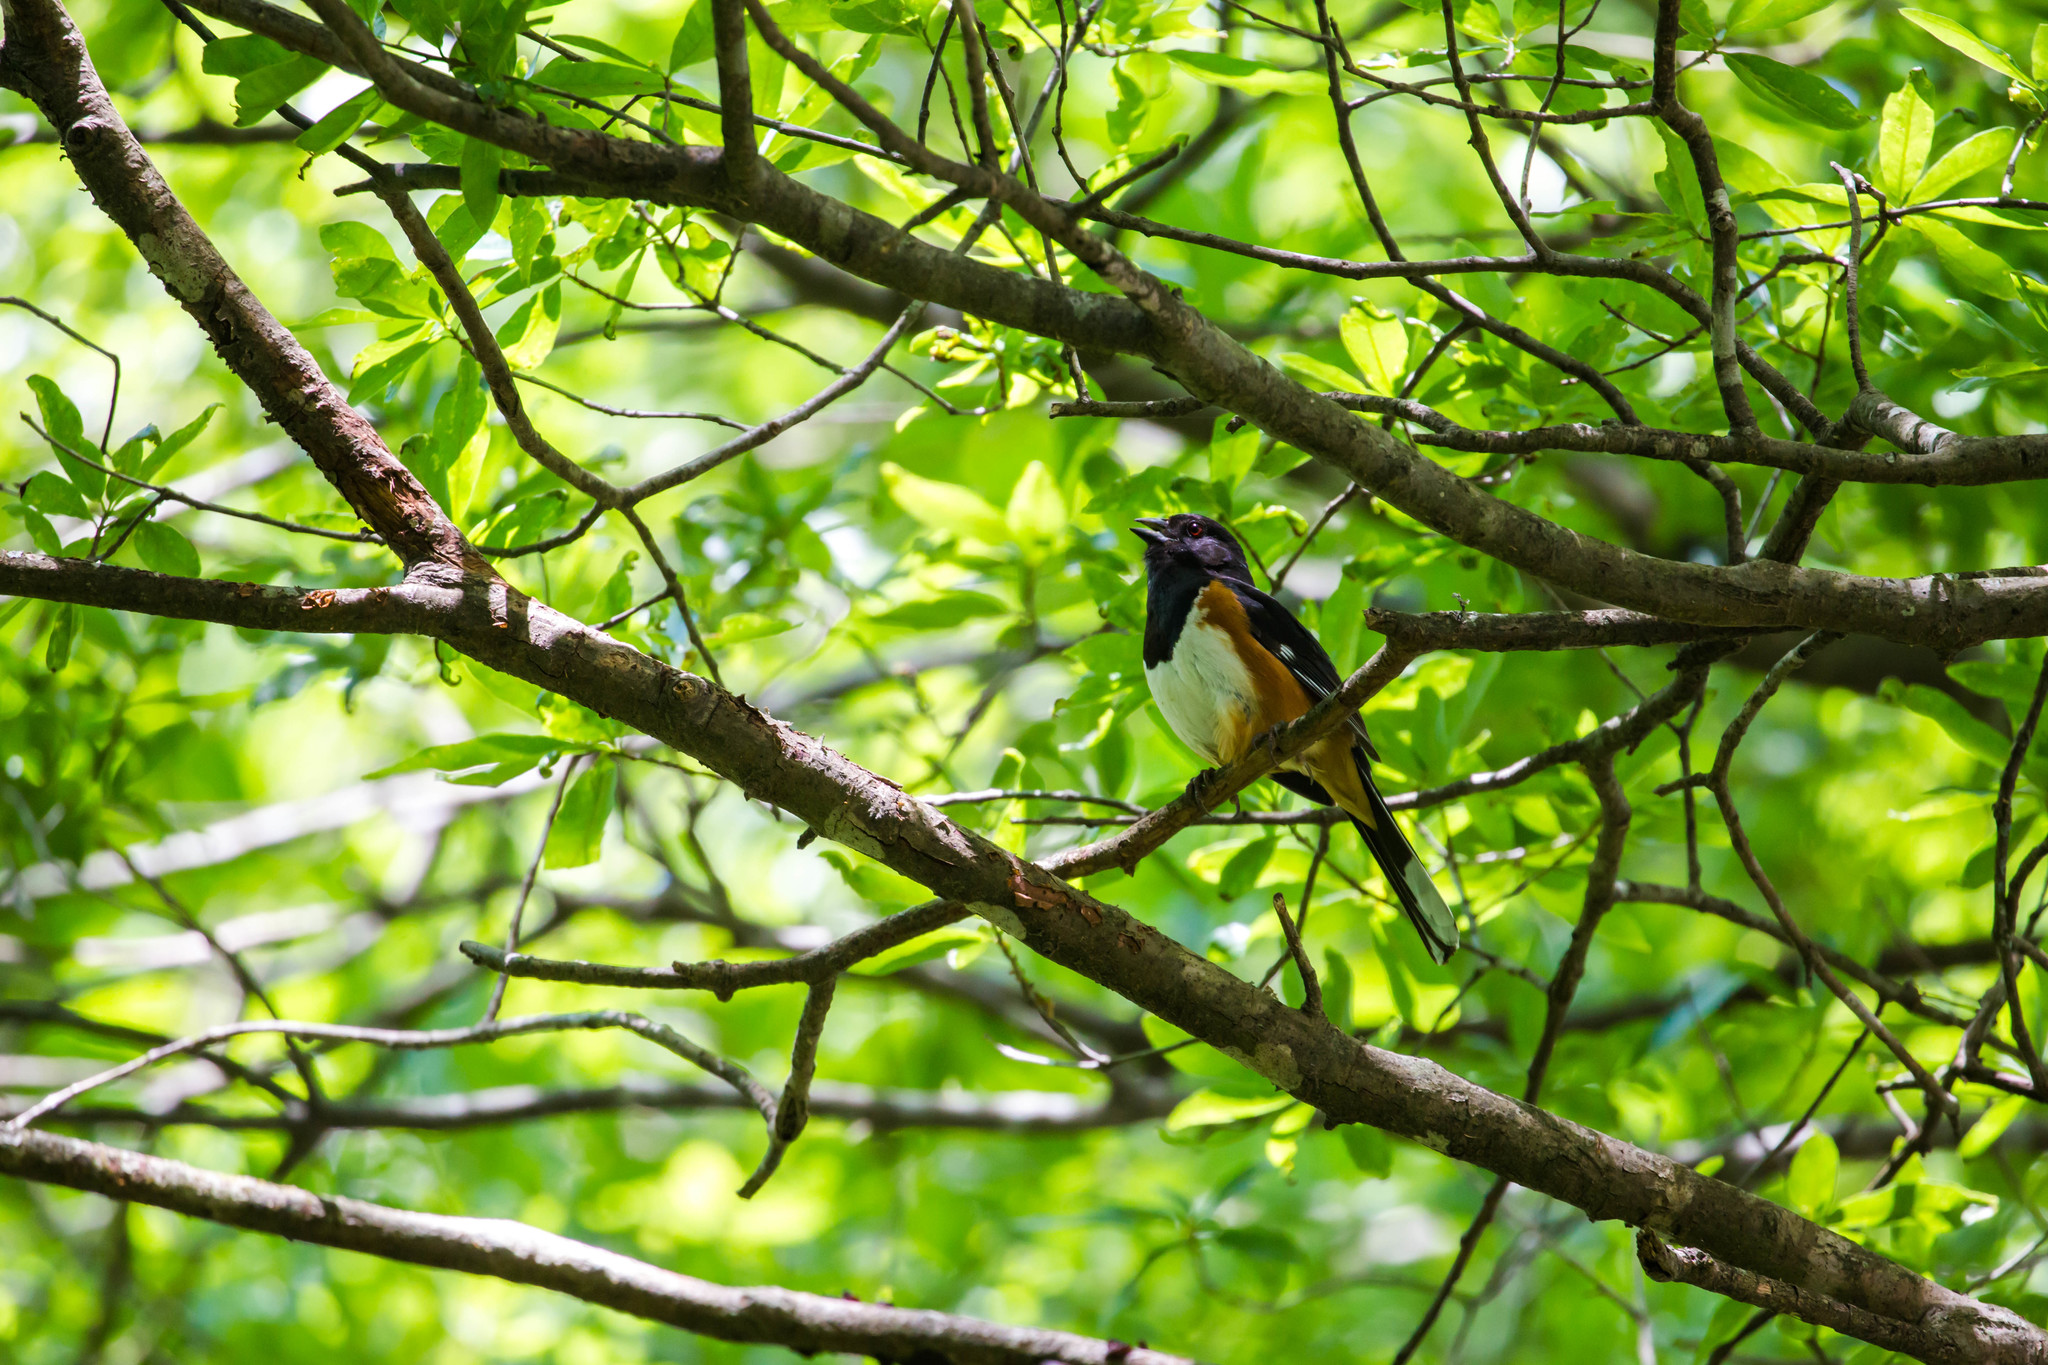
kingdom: Animalia
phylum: Chordata
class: Aves
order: Passeriformes
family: Passerellidae
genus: Pipilo
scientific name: Pipilo erythrophthalmus
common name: Eastern towhee
